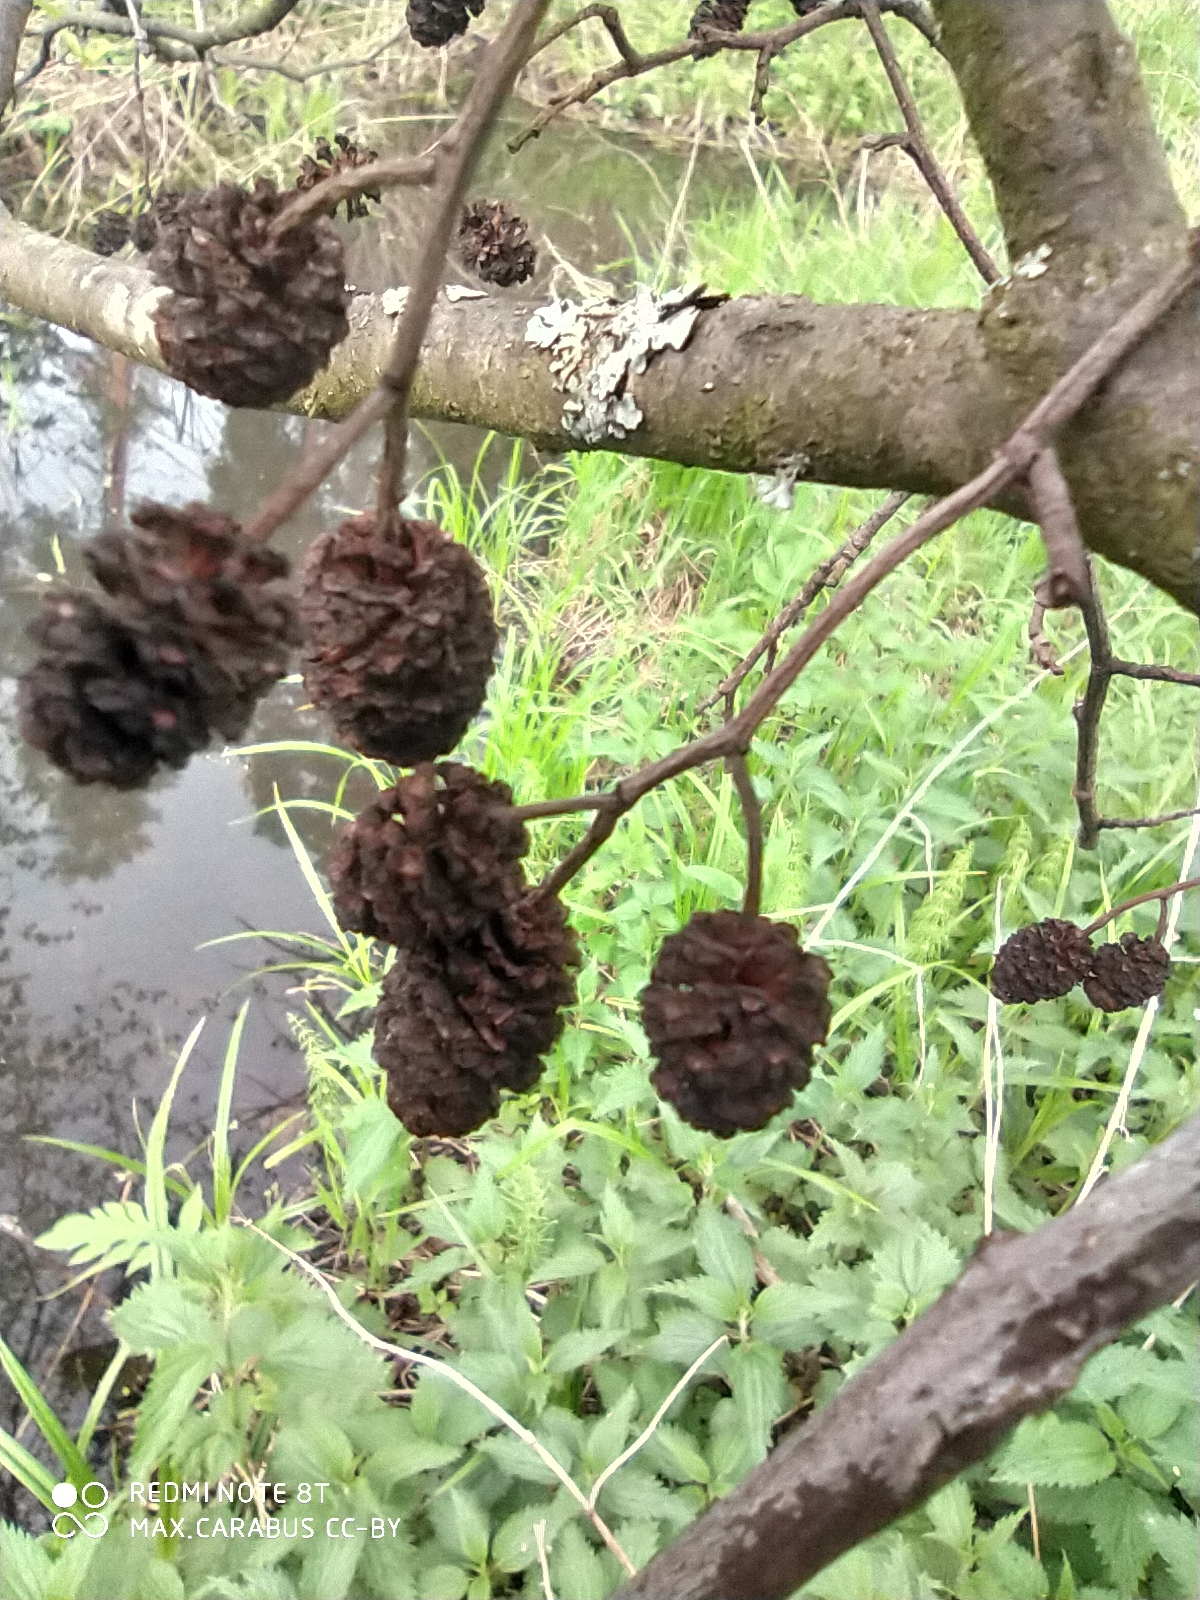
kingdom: Plantae
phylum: Tracheophyta
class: Magnoliopsida
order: Fagales
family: Betulaceae
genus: Alnus
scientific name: Alnus glutinosa
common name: Black alder
